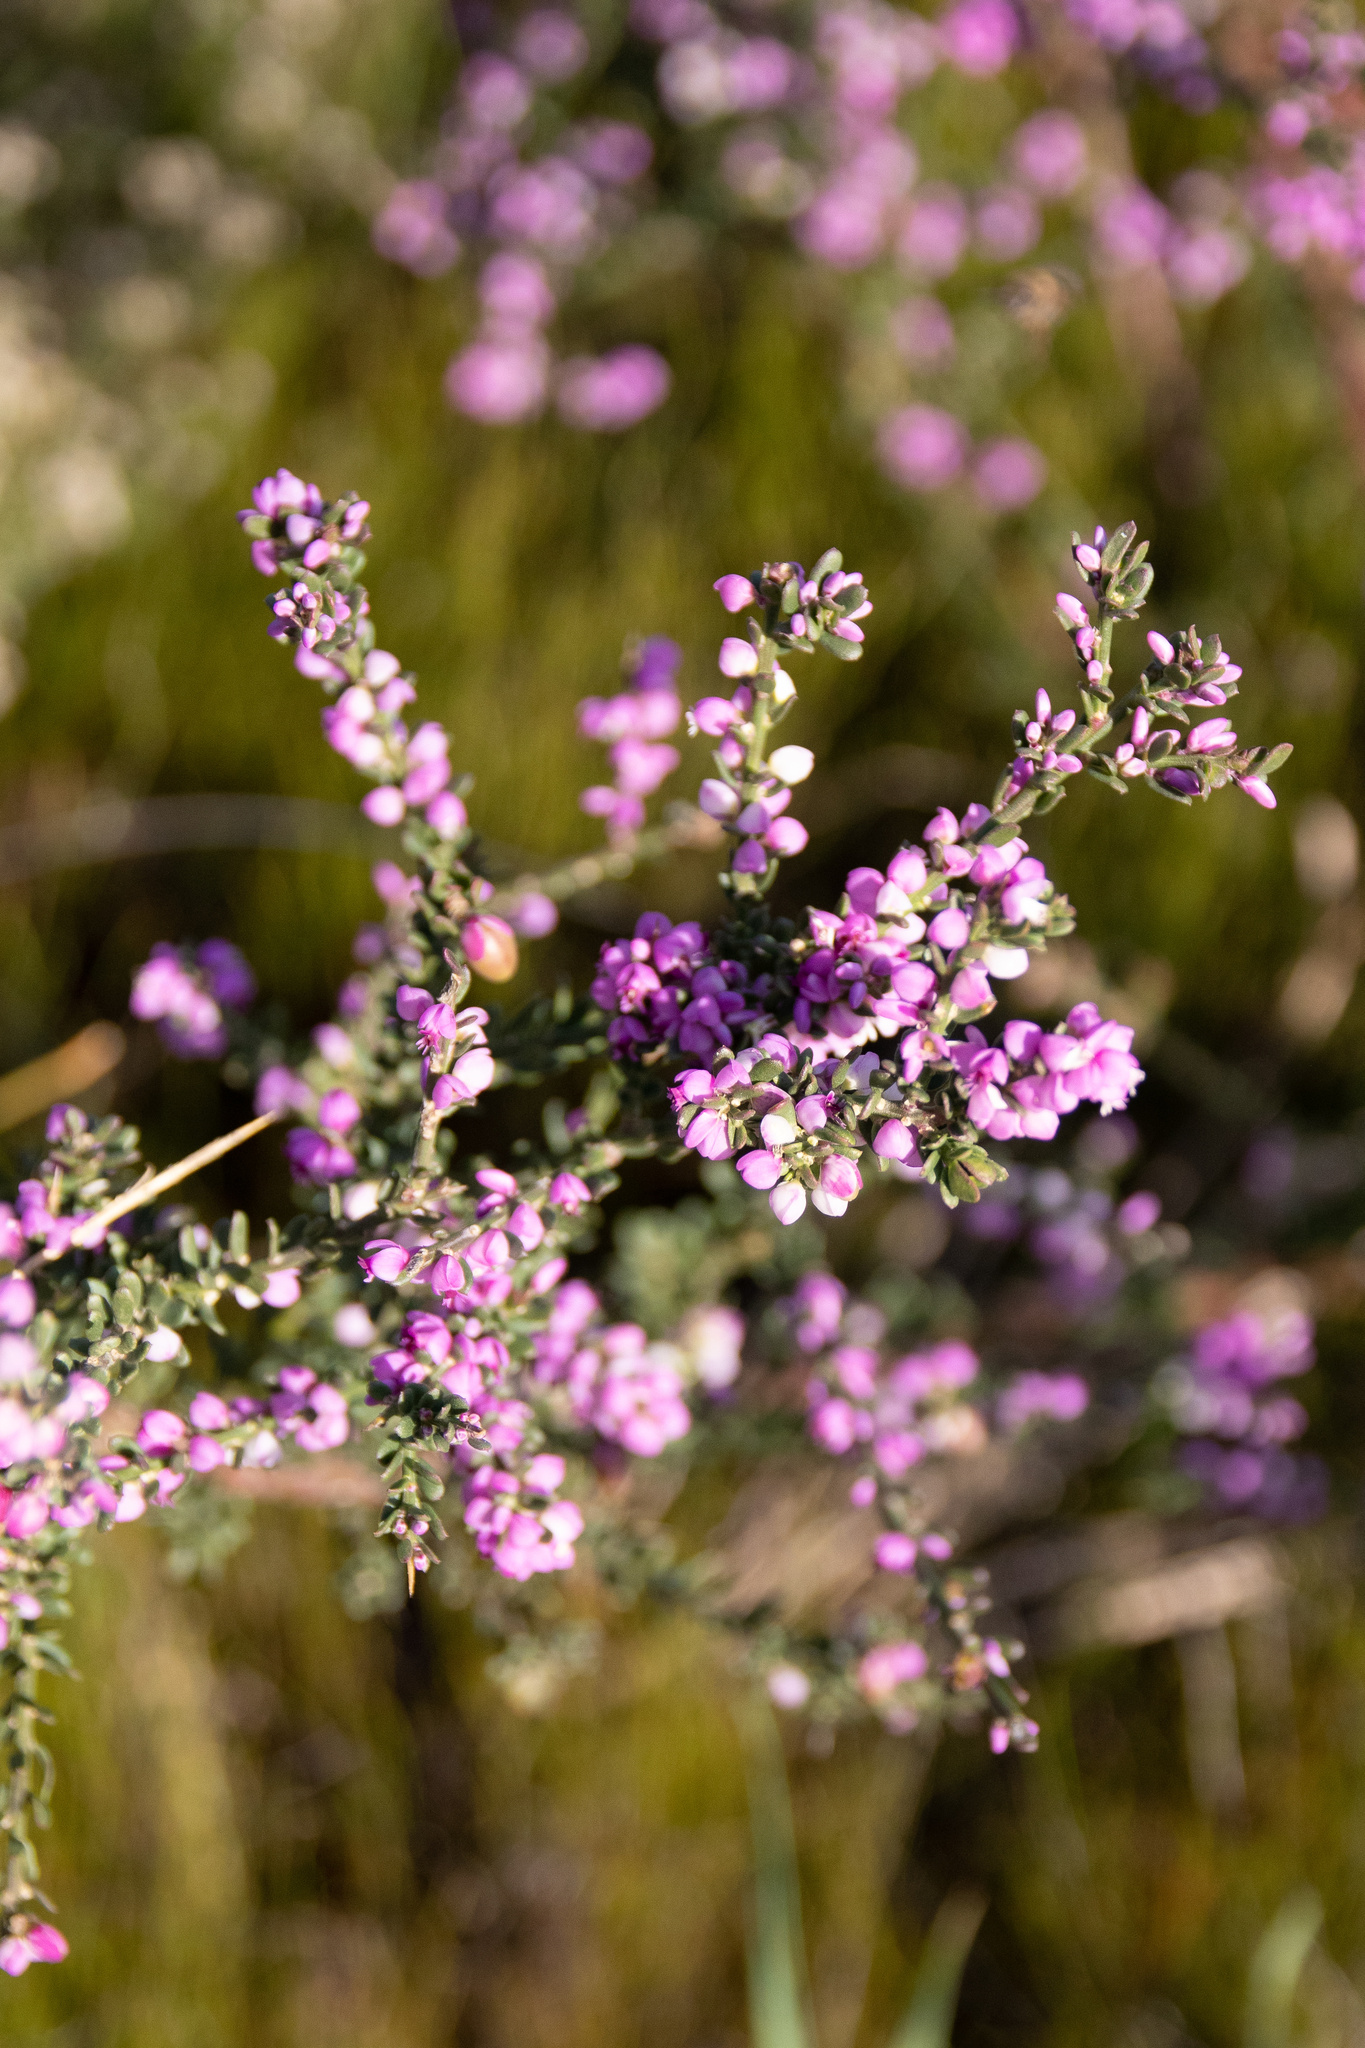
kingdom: Plantae
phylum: Tracheophyta
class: Magnoliopsida
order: Fabales
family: Polygalaceae
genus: Muraltia
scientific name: Muraltia spinosa
